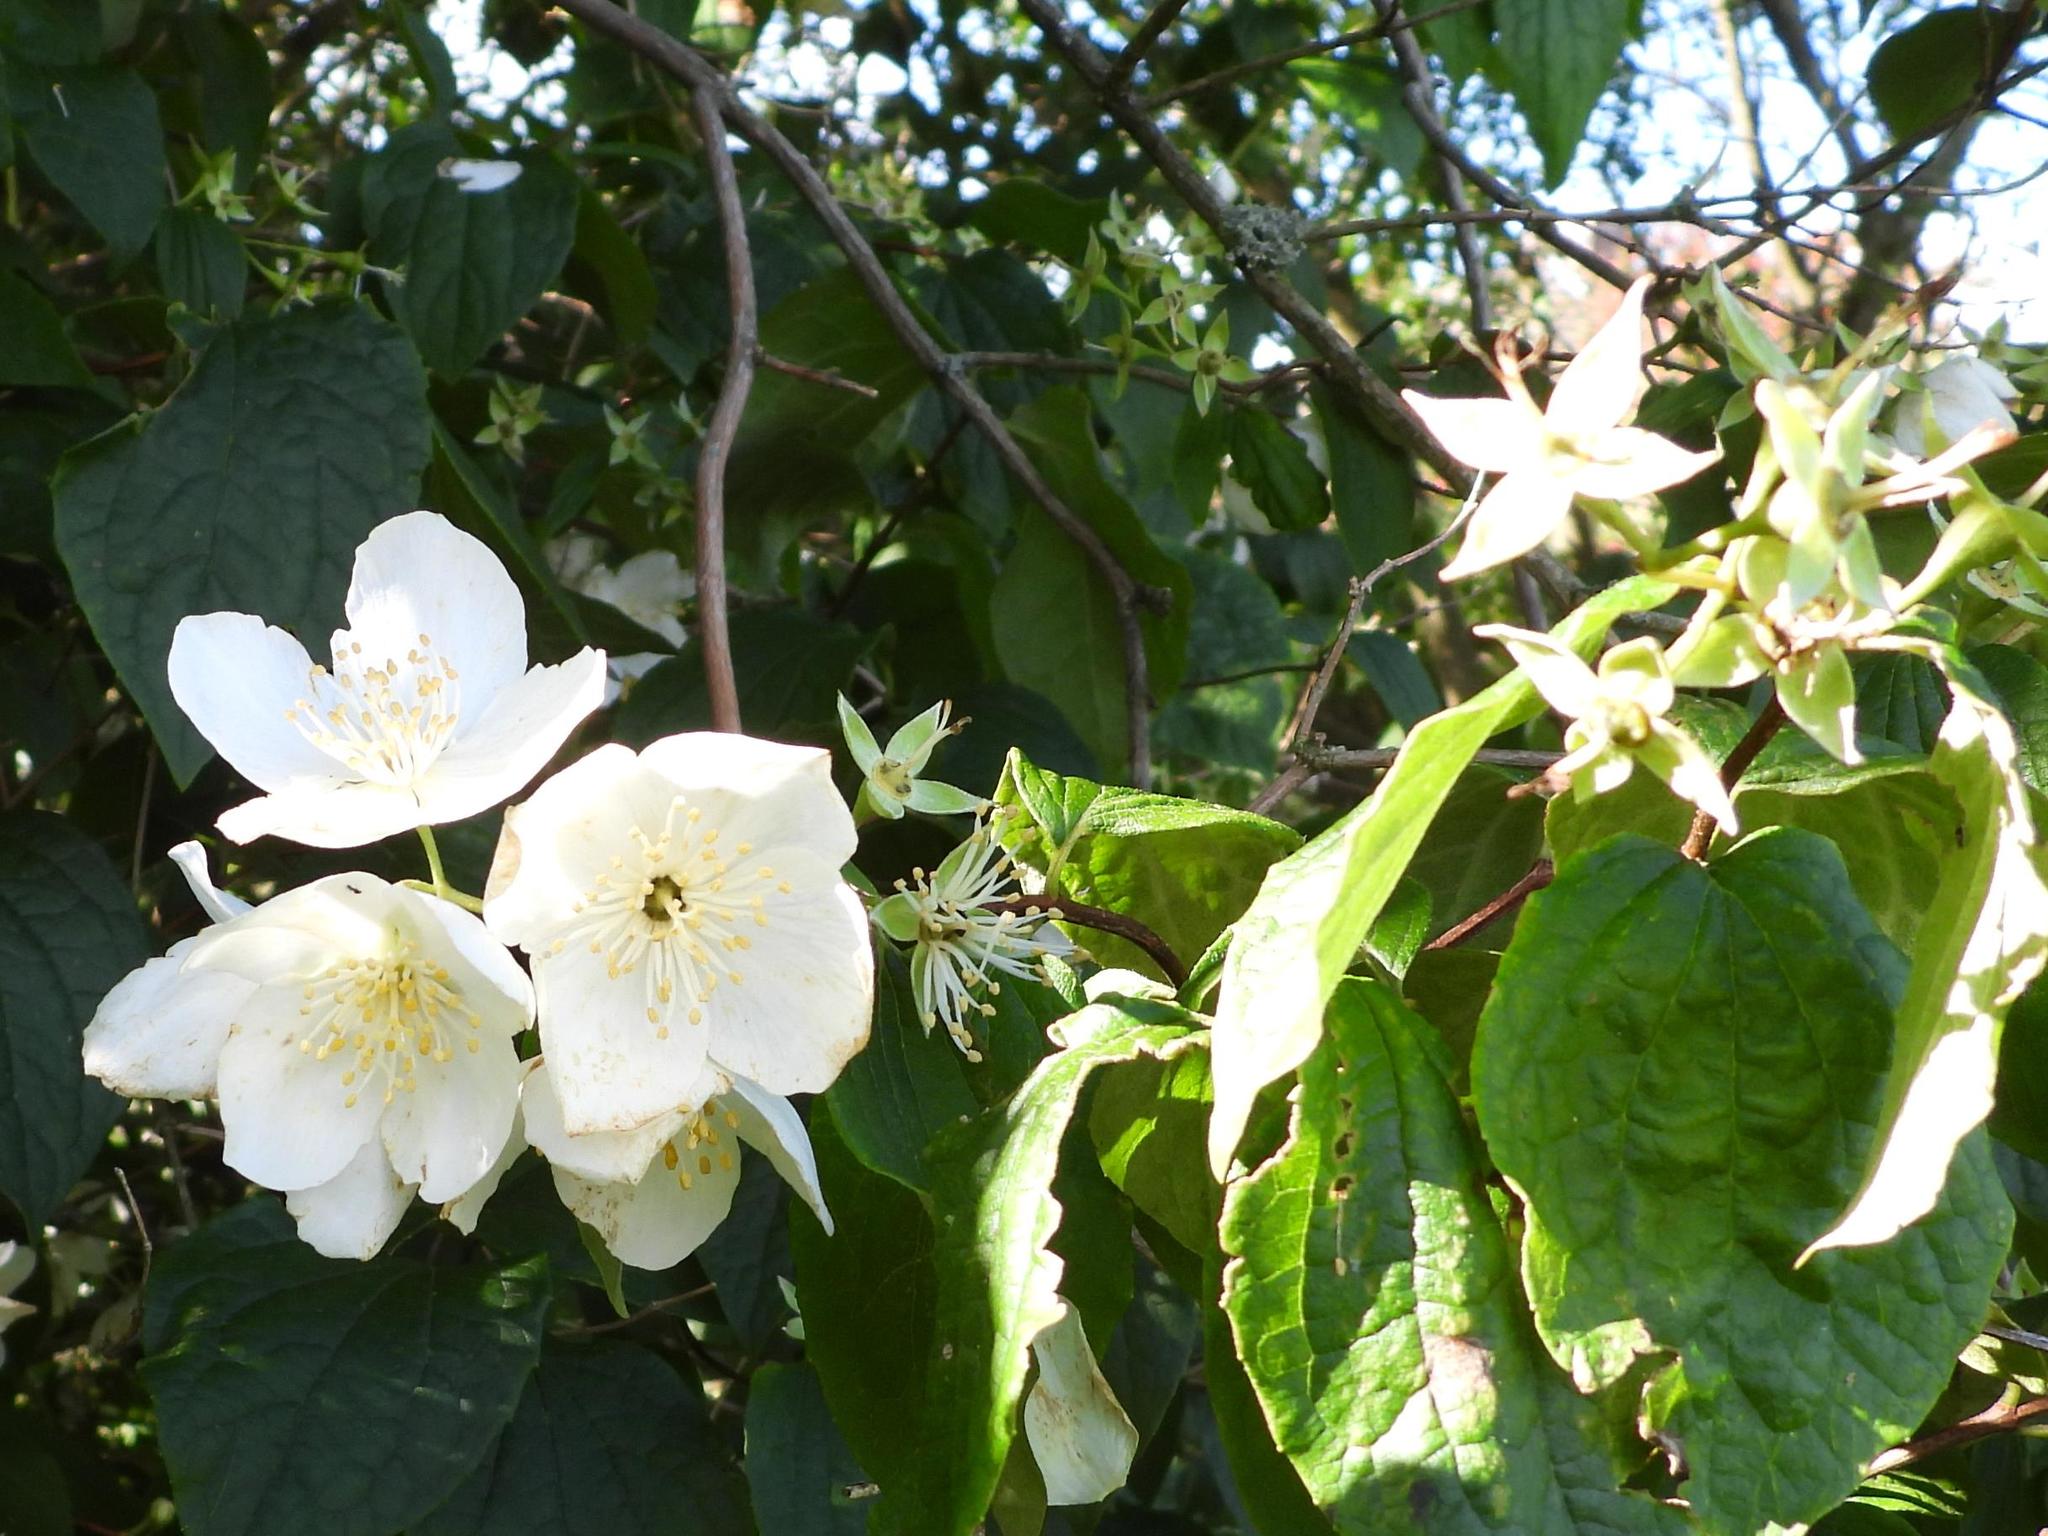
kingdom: Plantae
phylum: Tracheophyta
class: Magnoliopsida
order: Cornales
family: Hydrangeaceae
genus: Philadelphus
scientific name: Philadelphus coronarius
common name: Mock orange
